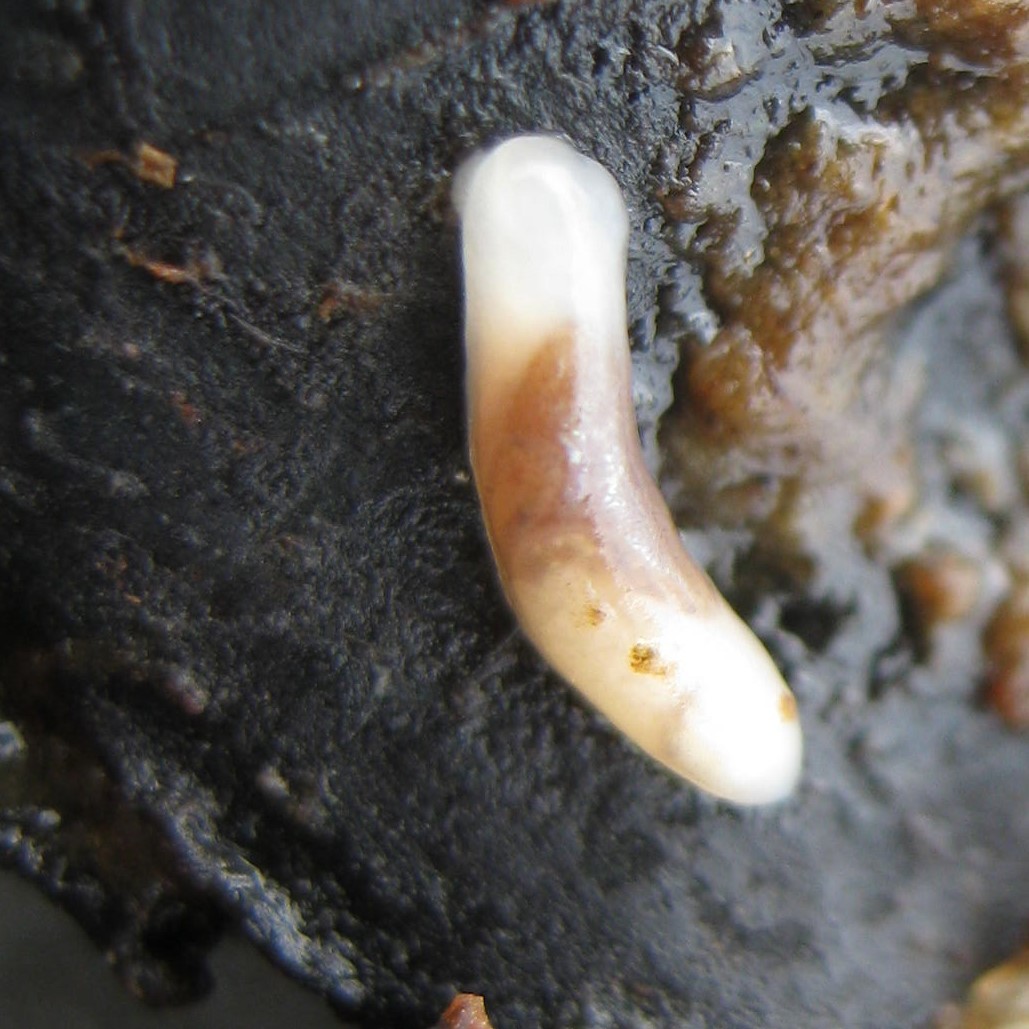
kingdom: Animalia
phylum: Mollusca
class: Gastropoda
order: Ellobiida
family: Otinidae
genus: Smeagol
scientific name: Smeagol climoi
